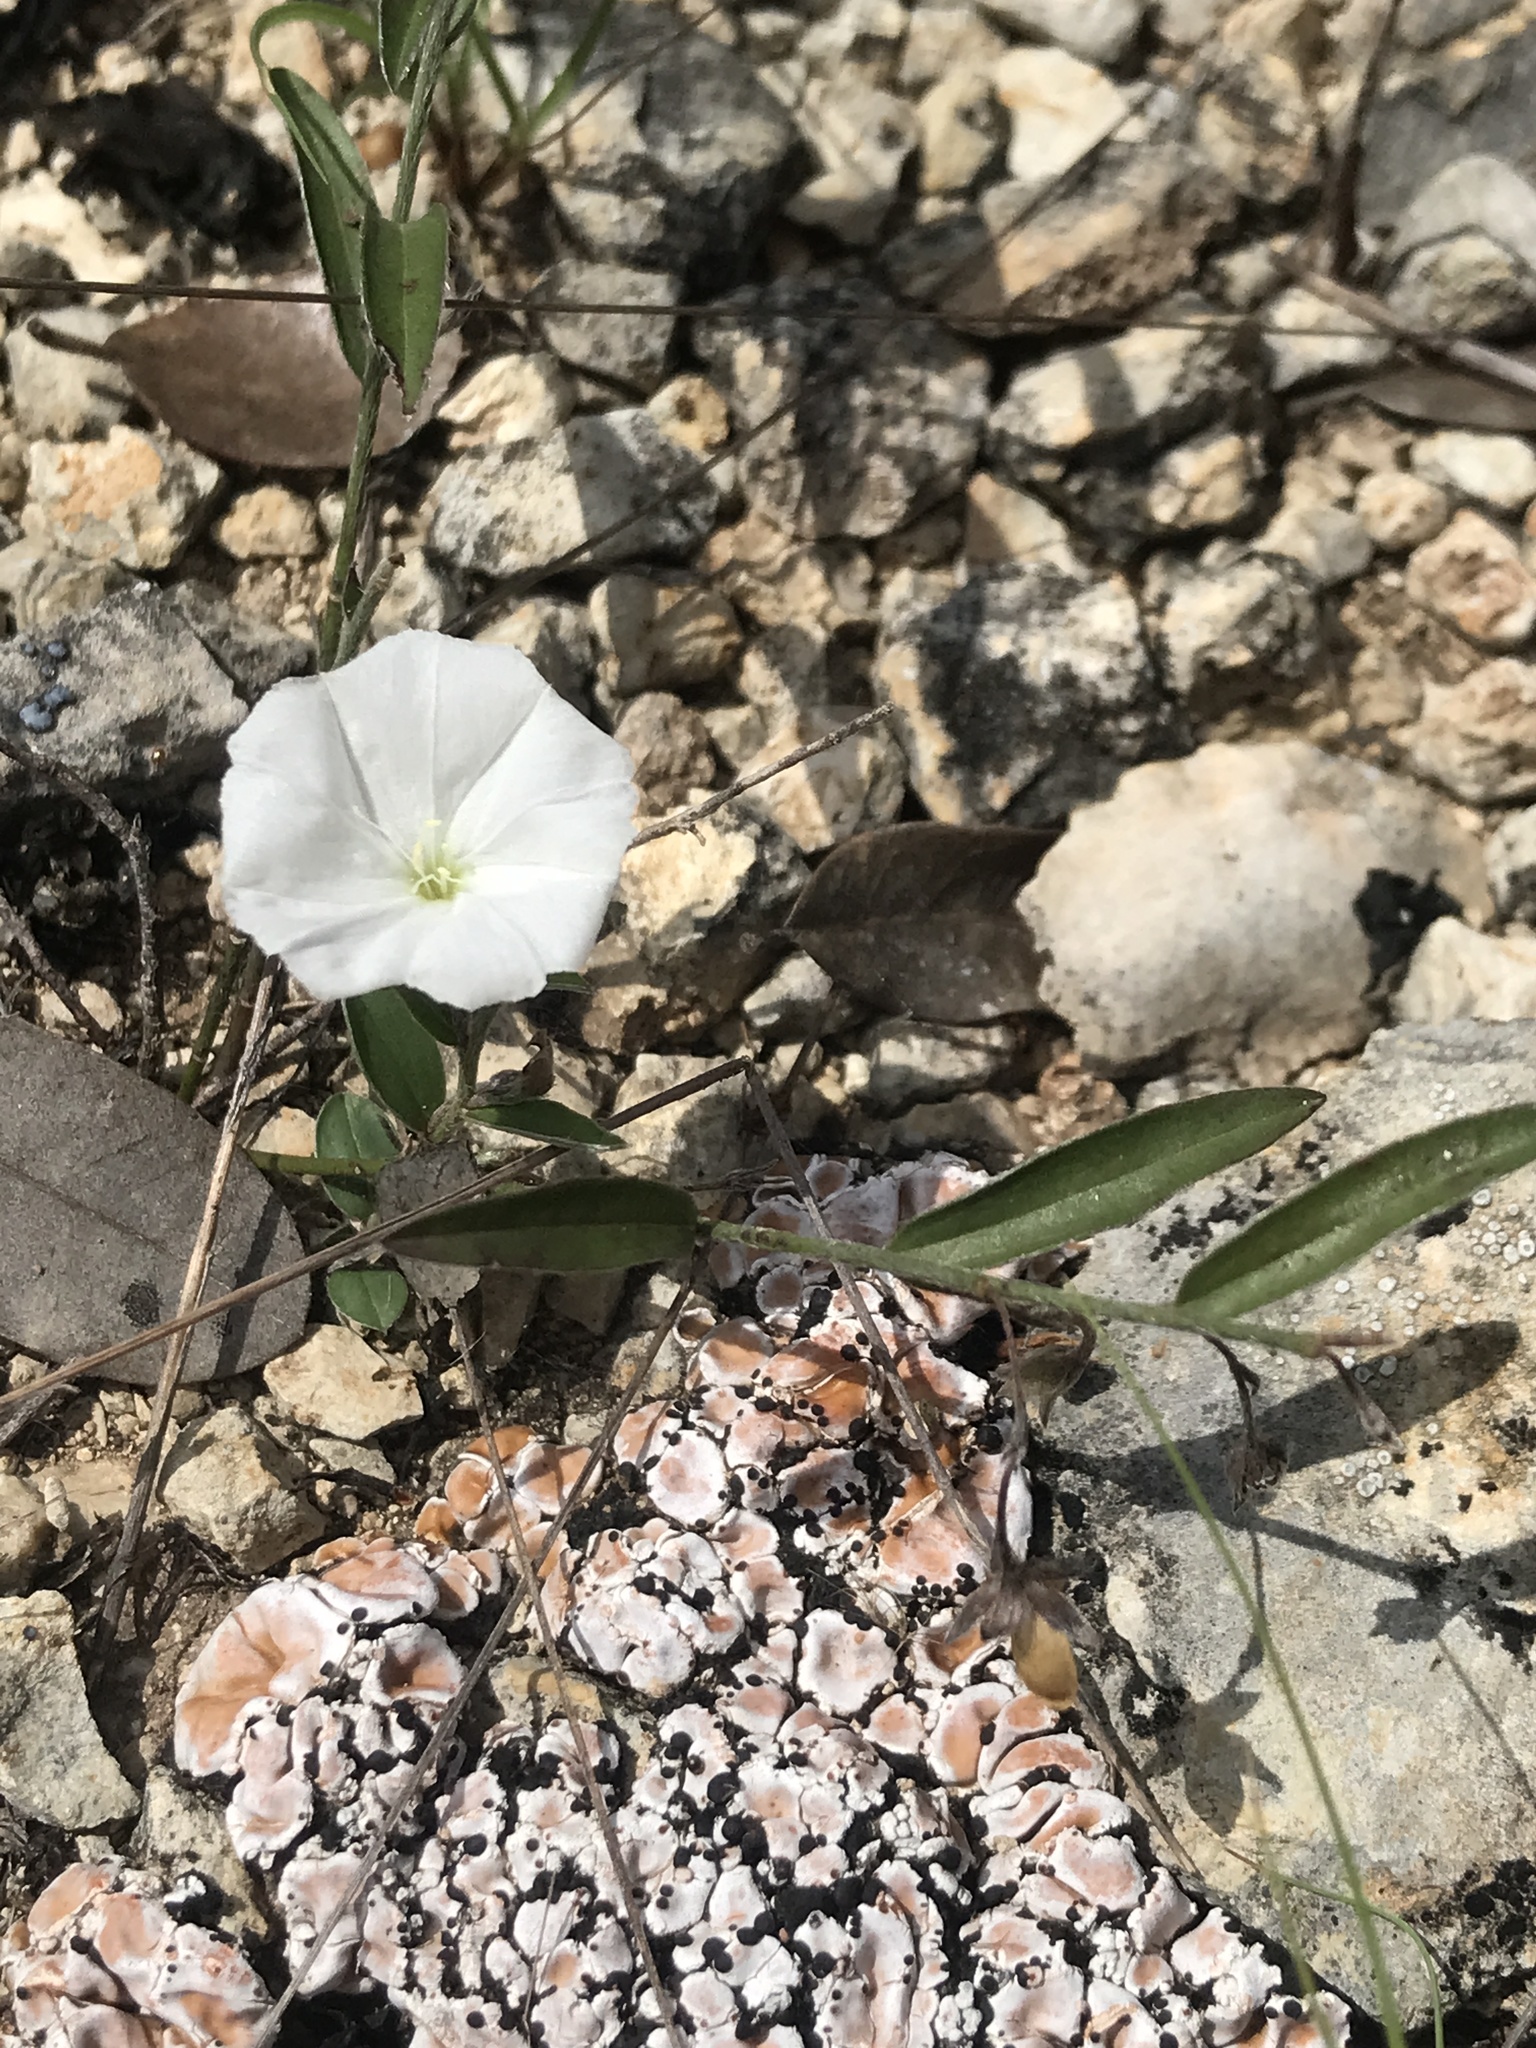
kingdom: Plantae
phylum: Tracheophyta
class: Magnoliopsida
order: Solanales
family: Convolvulaceae
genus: Evolvulus
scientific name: Evolvulus sericeus
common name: Blue dots
